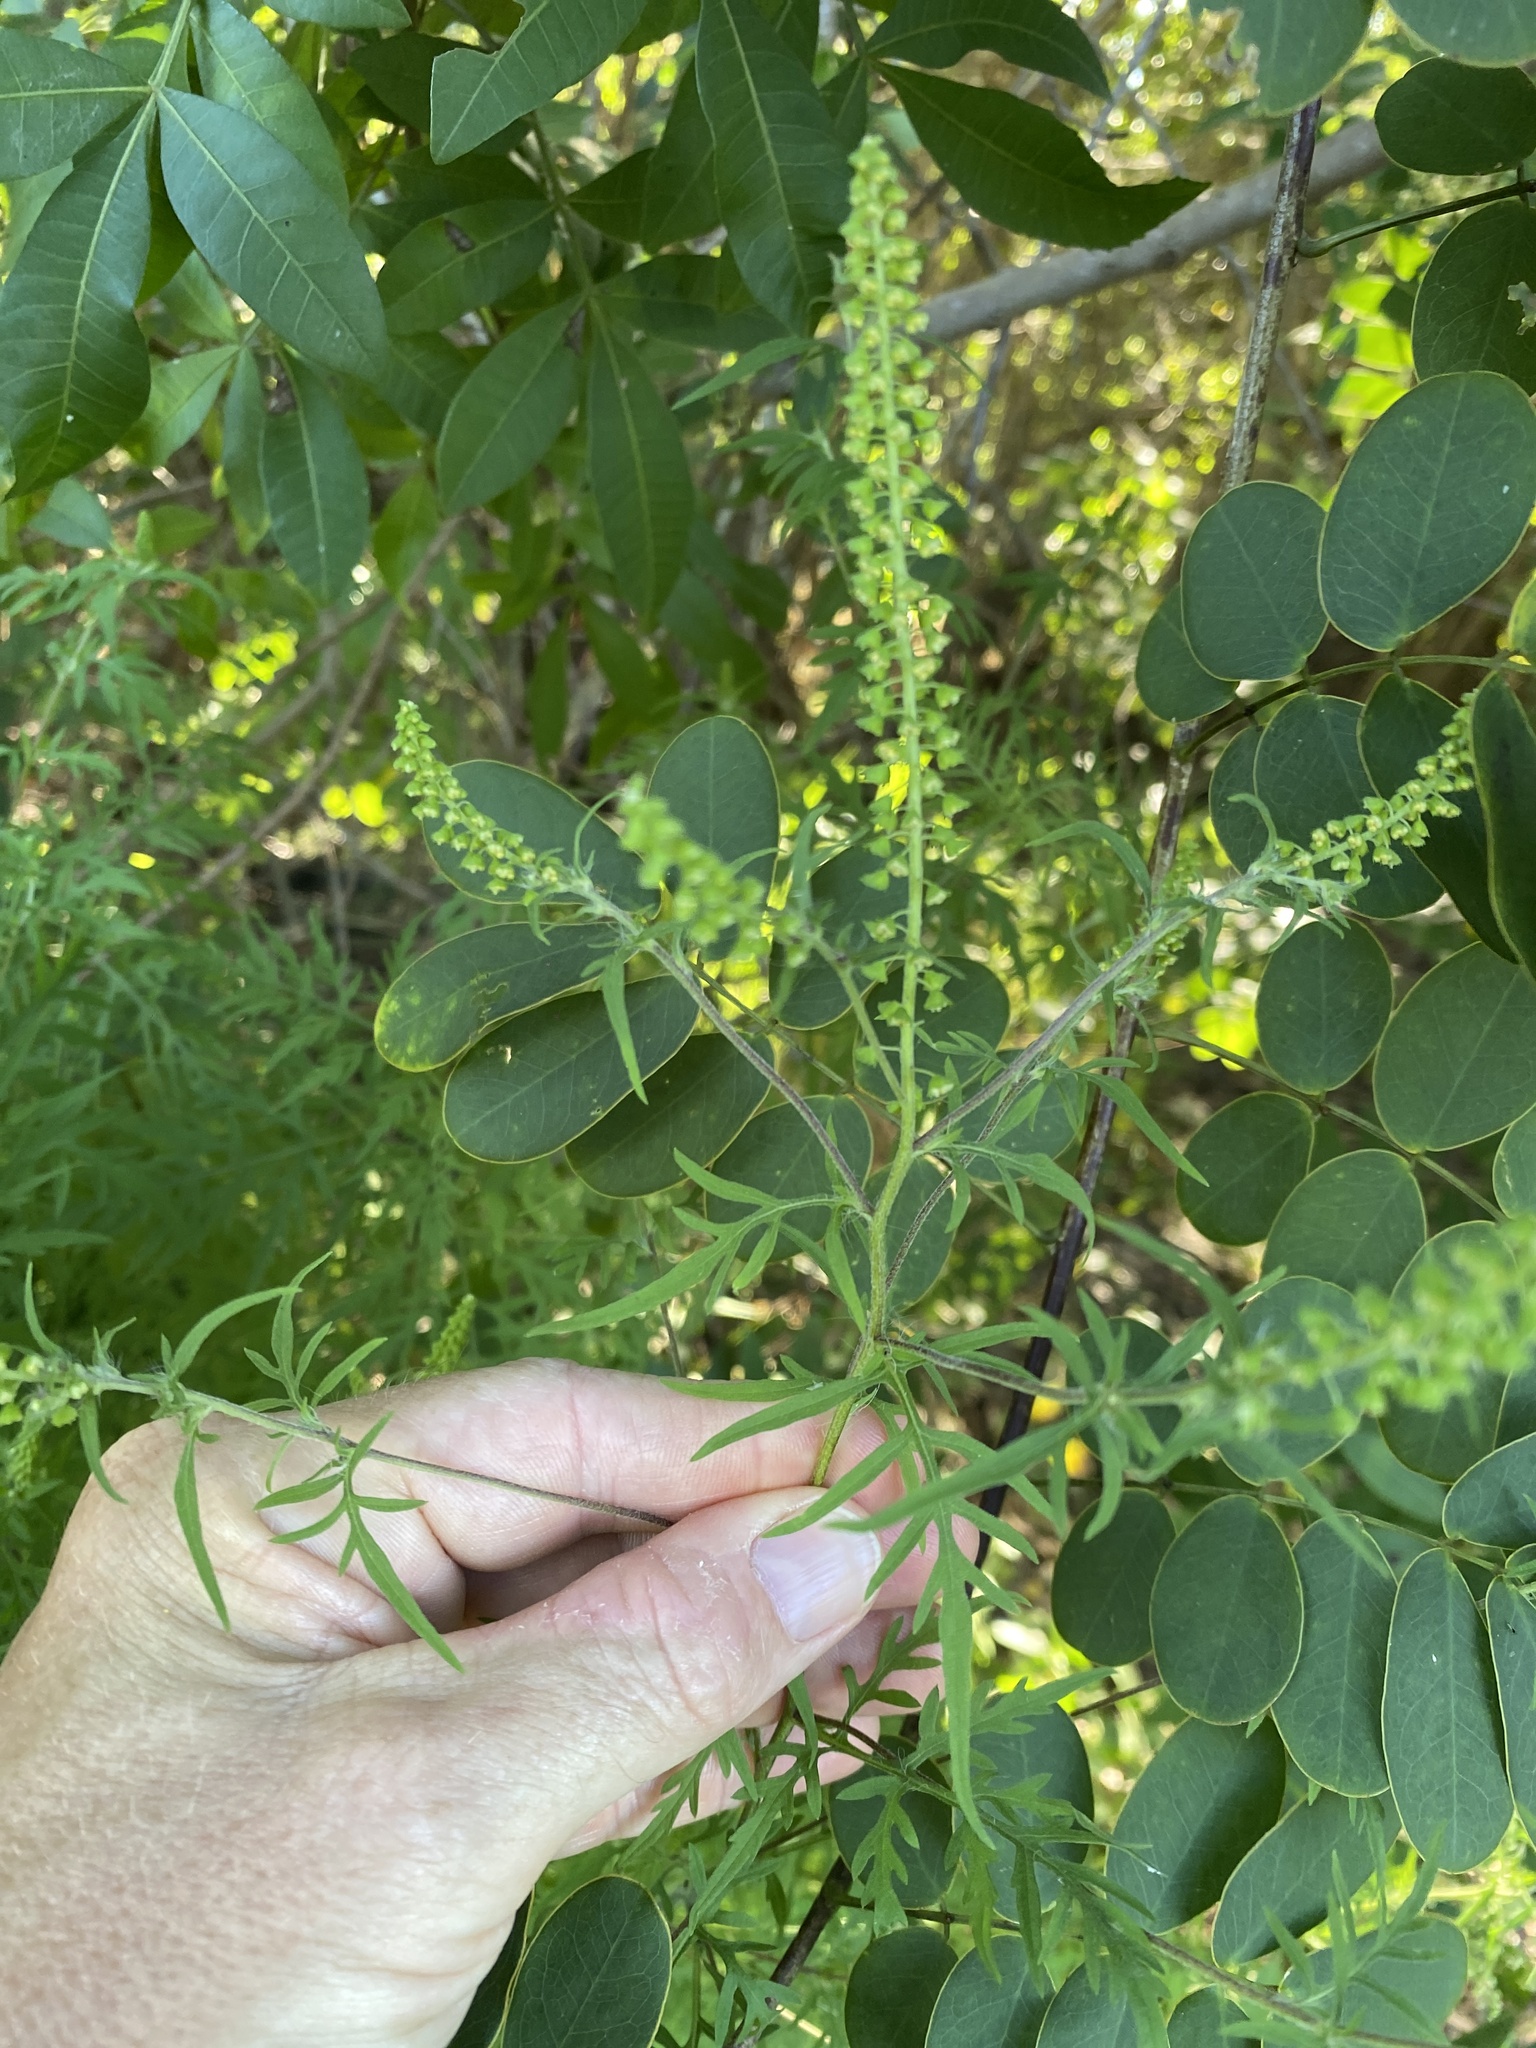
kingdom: Plantae
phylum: Tracheophyta
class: Magnoliopsida
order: Asterales
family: Asteraceae
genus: Ambrosia
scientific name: Ambrosia artemisiifolia
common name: Annual ragweed
